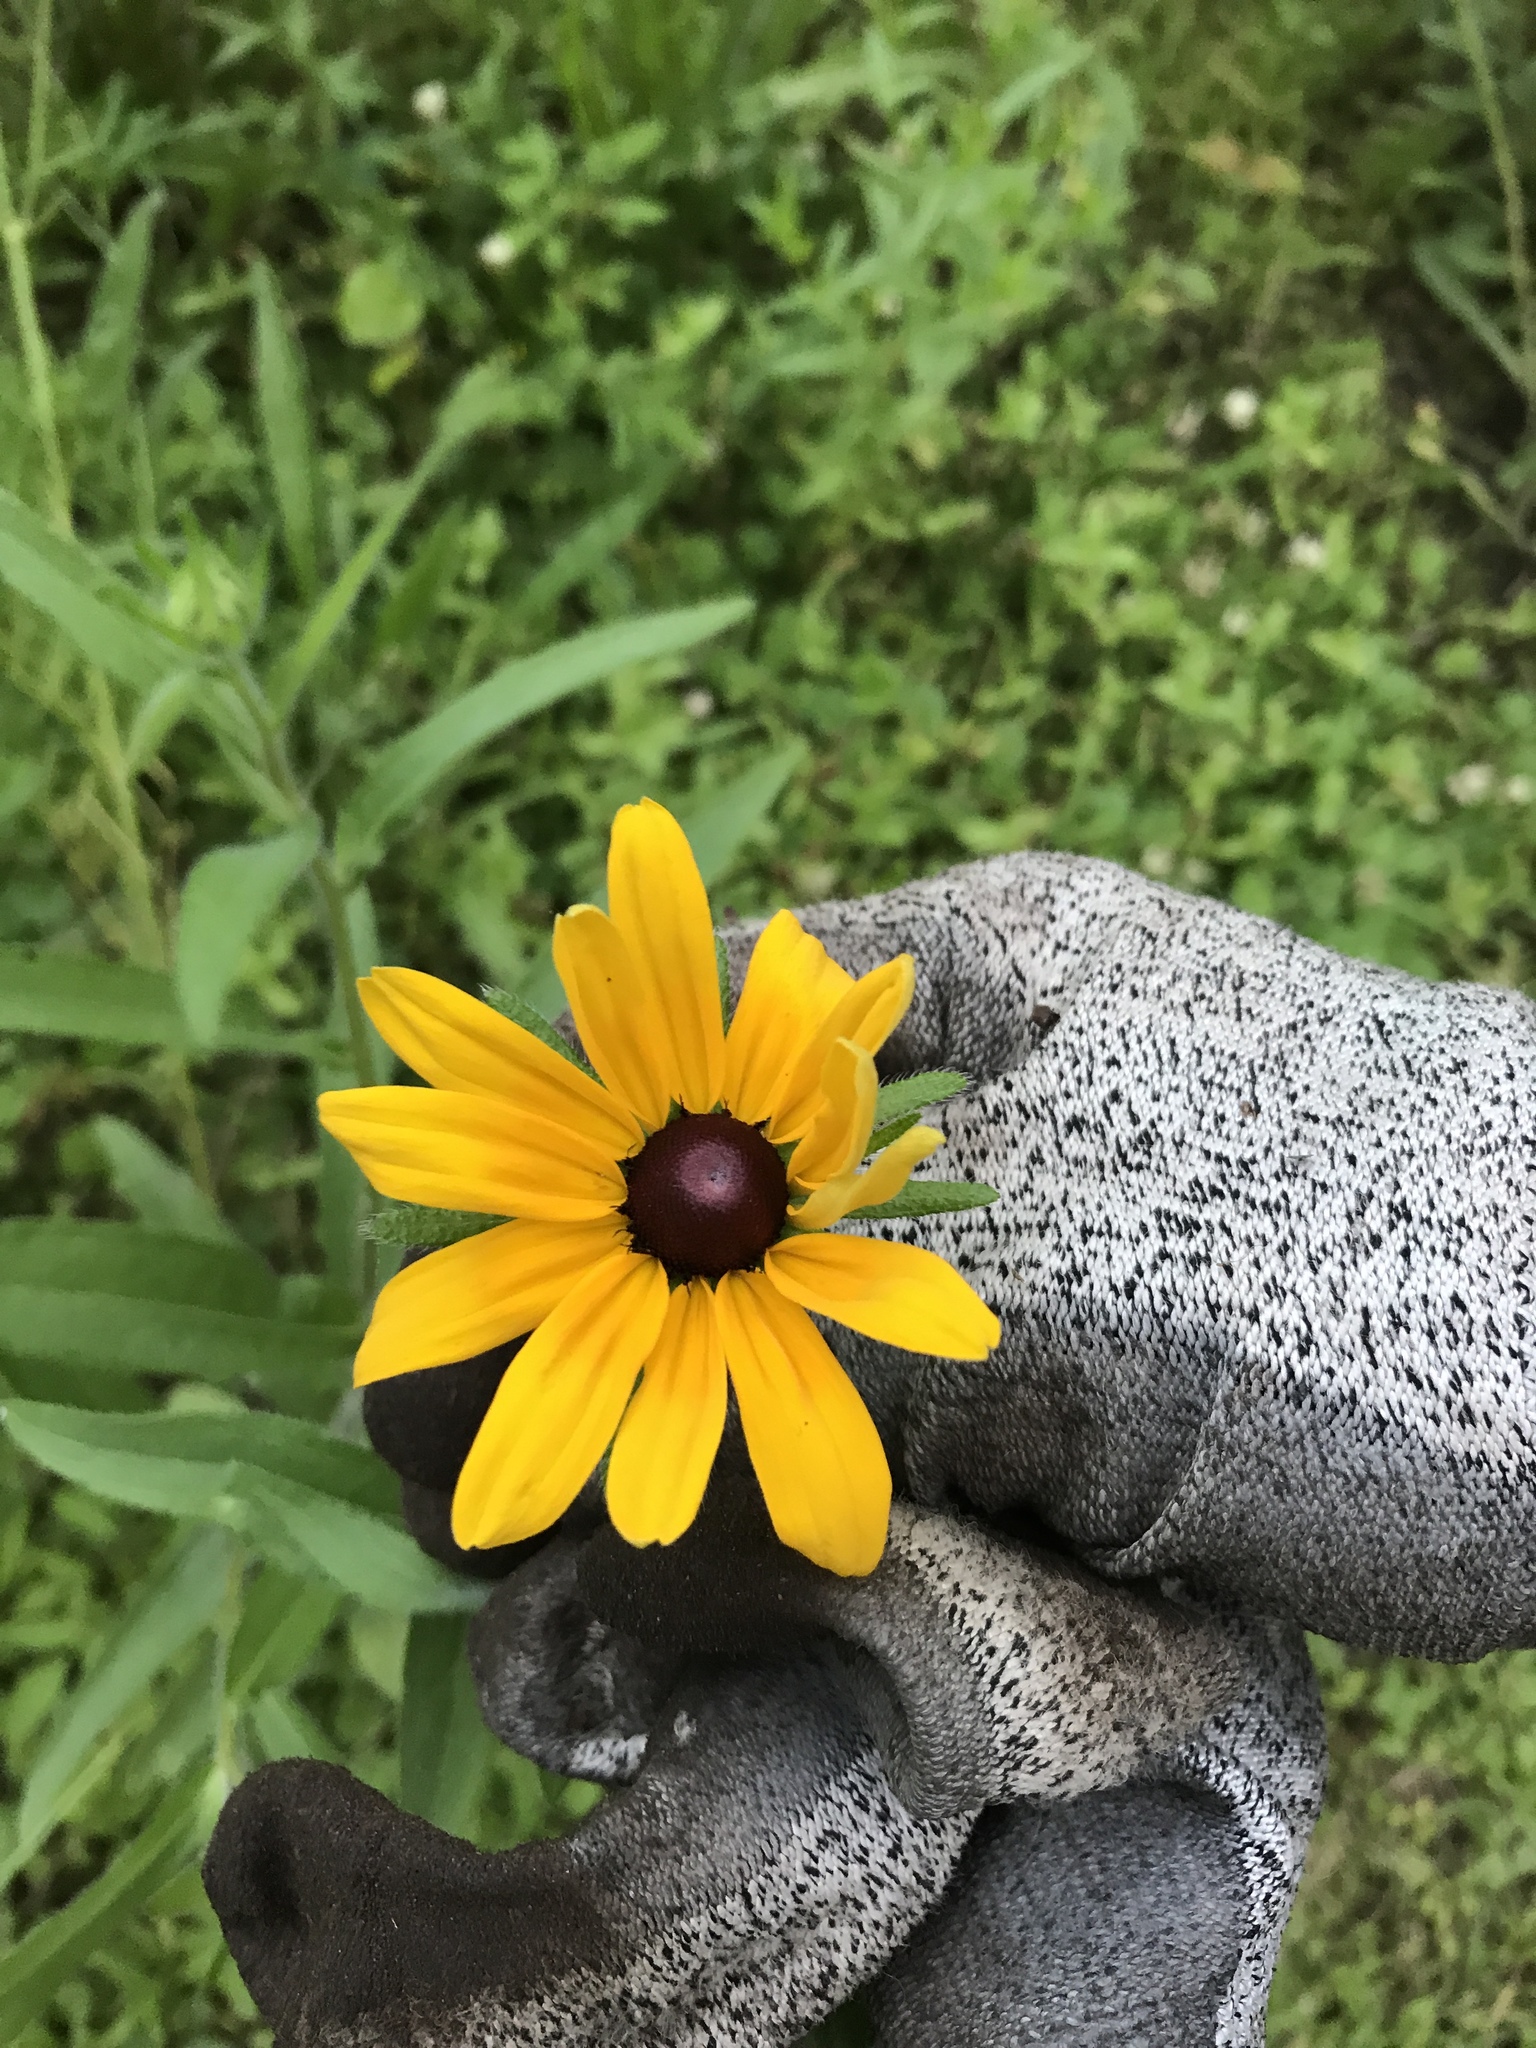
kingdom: Plantae
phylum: Tracheophyta
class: Magnoliopsida
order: Asterales
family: Asteraceae
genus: Rudbeckia
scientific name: Rudbeckia hirta
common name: Black-eyed-susan
